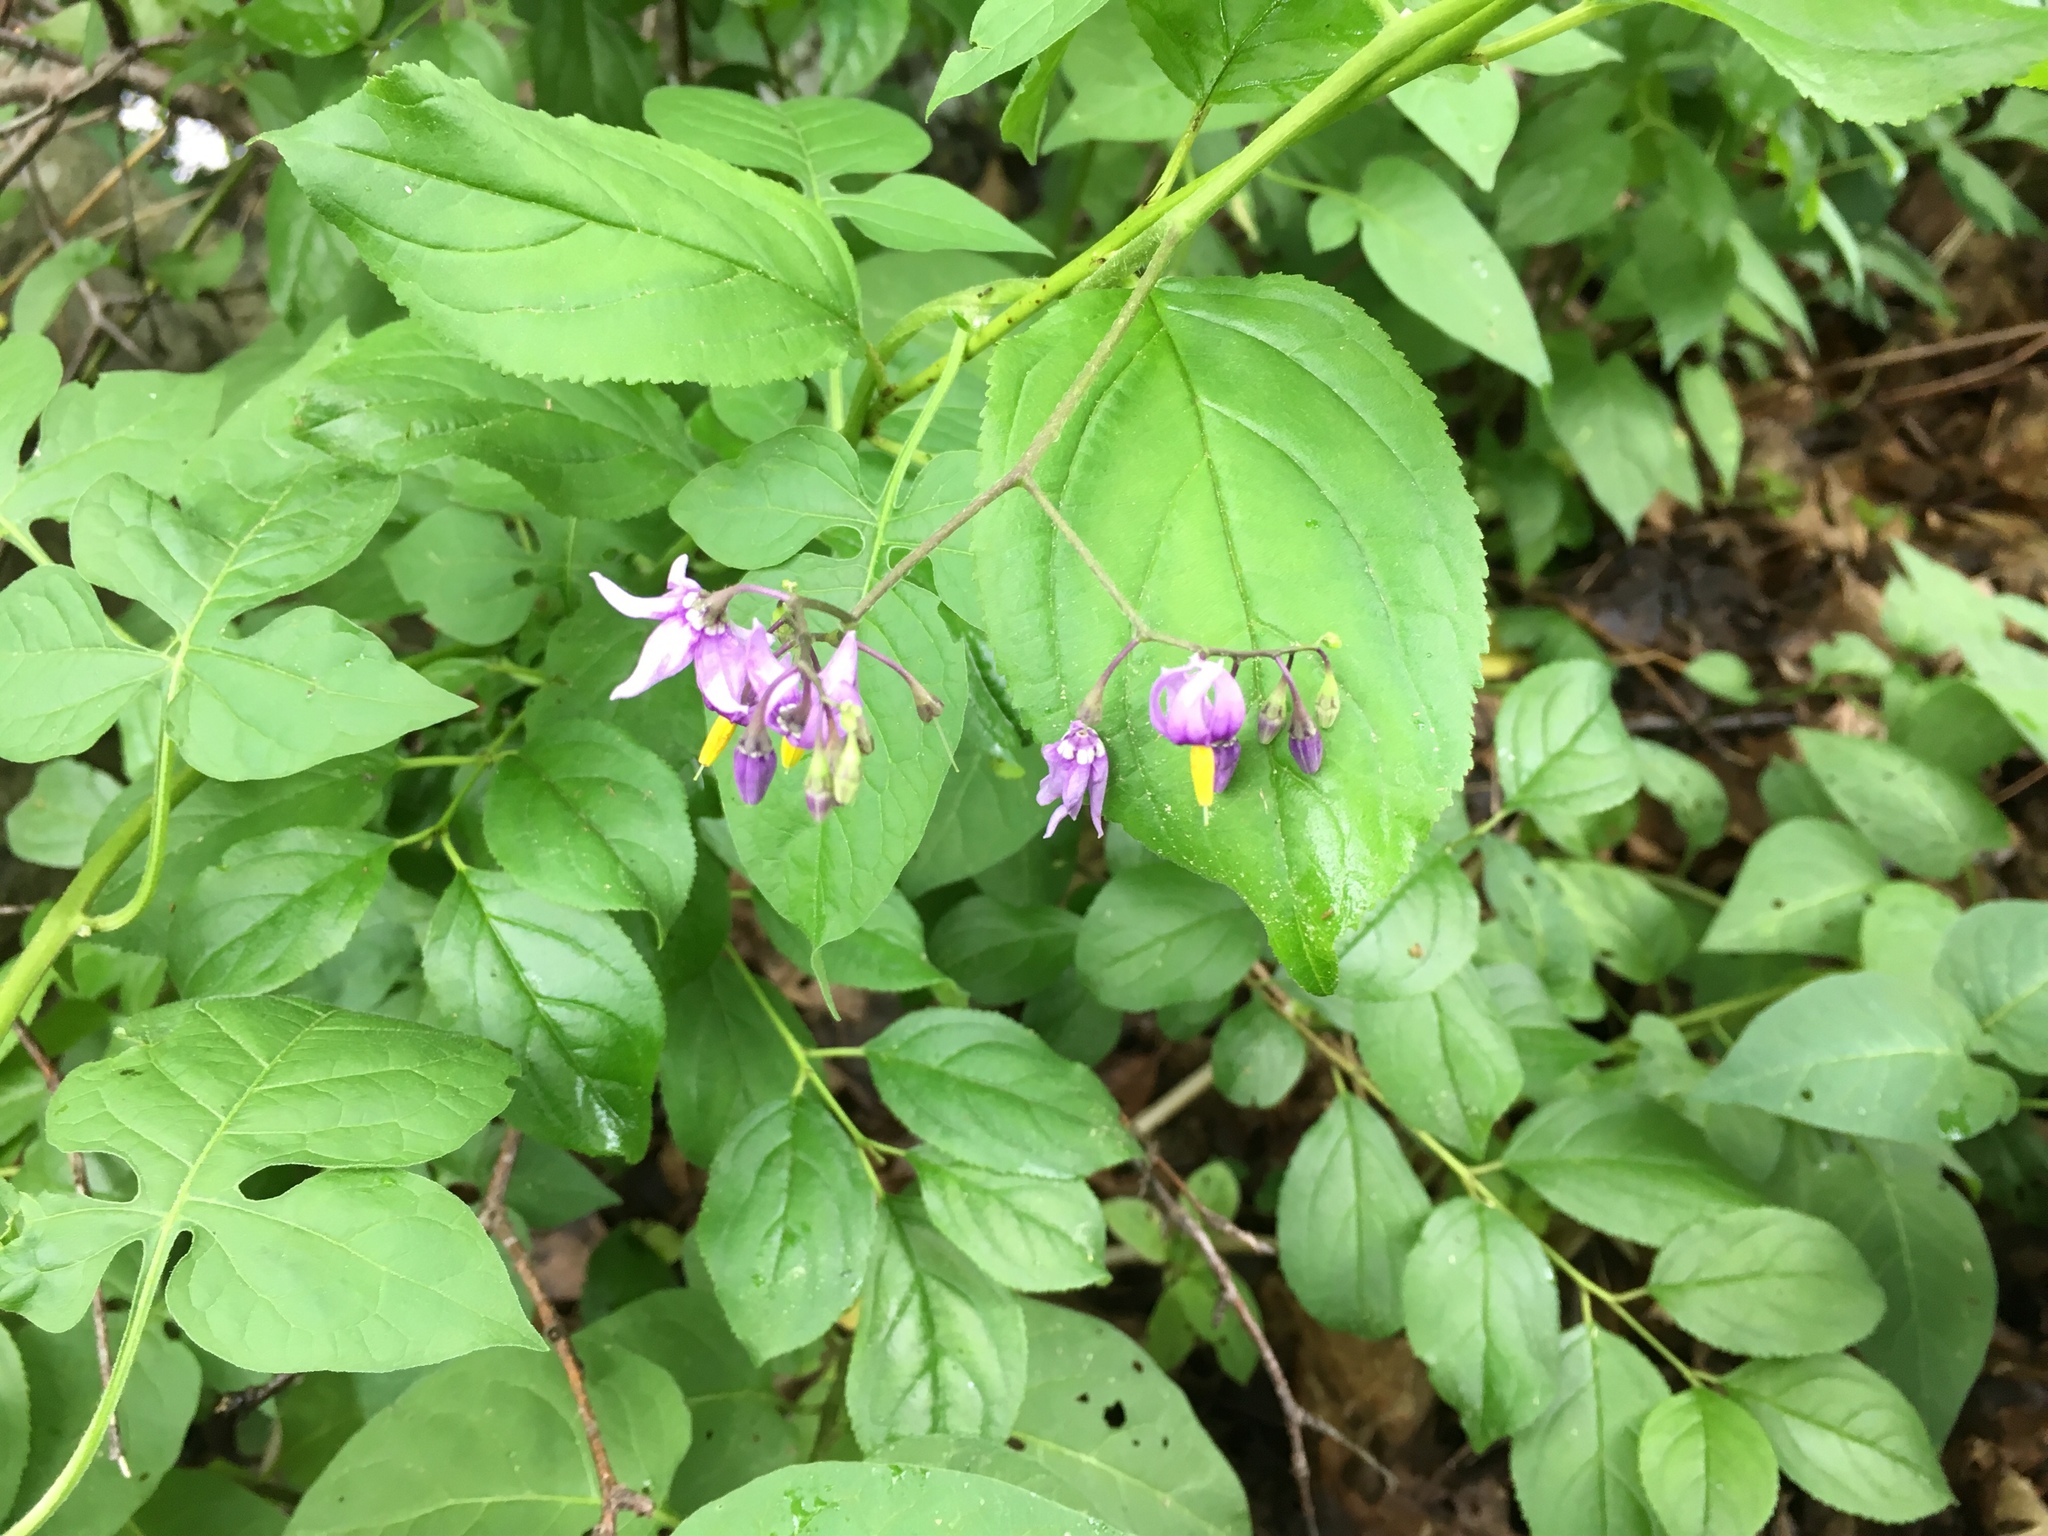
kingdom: Plantae
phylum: Tracheophyta
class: Magnoliopsida
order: Solanales
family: Solanaceae
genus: Solanum
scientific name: Solanum dulcamara
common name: Climbing nightshade
